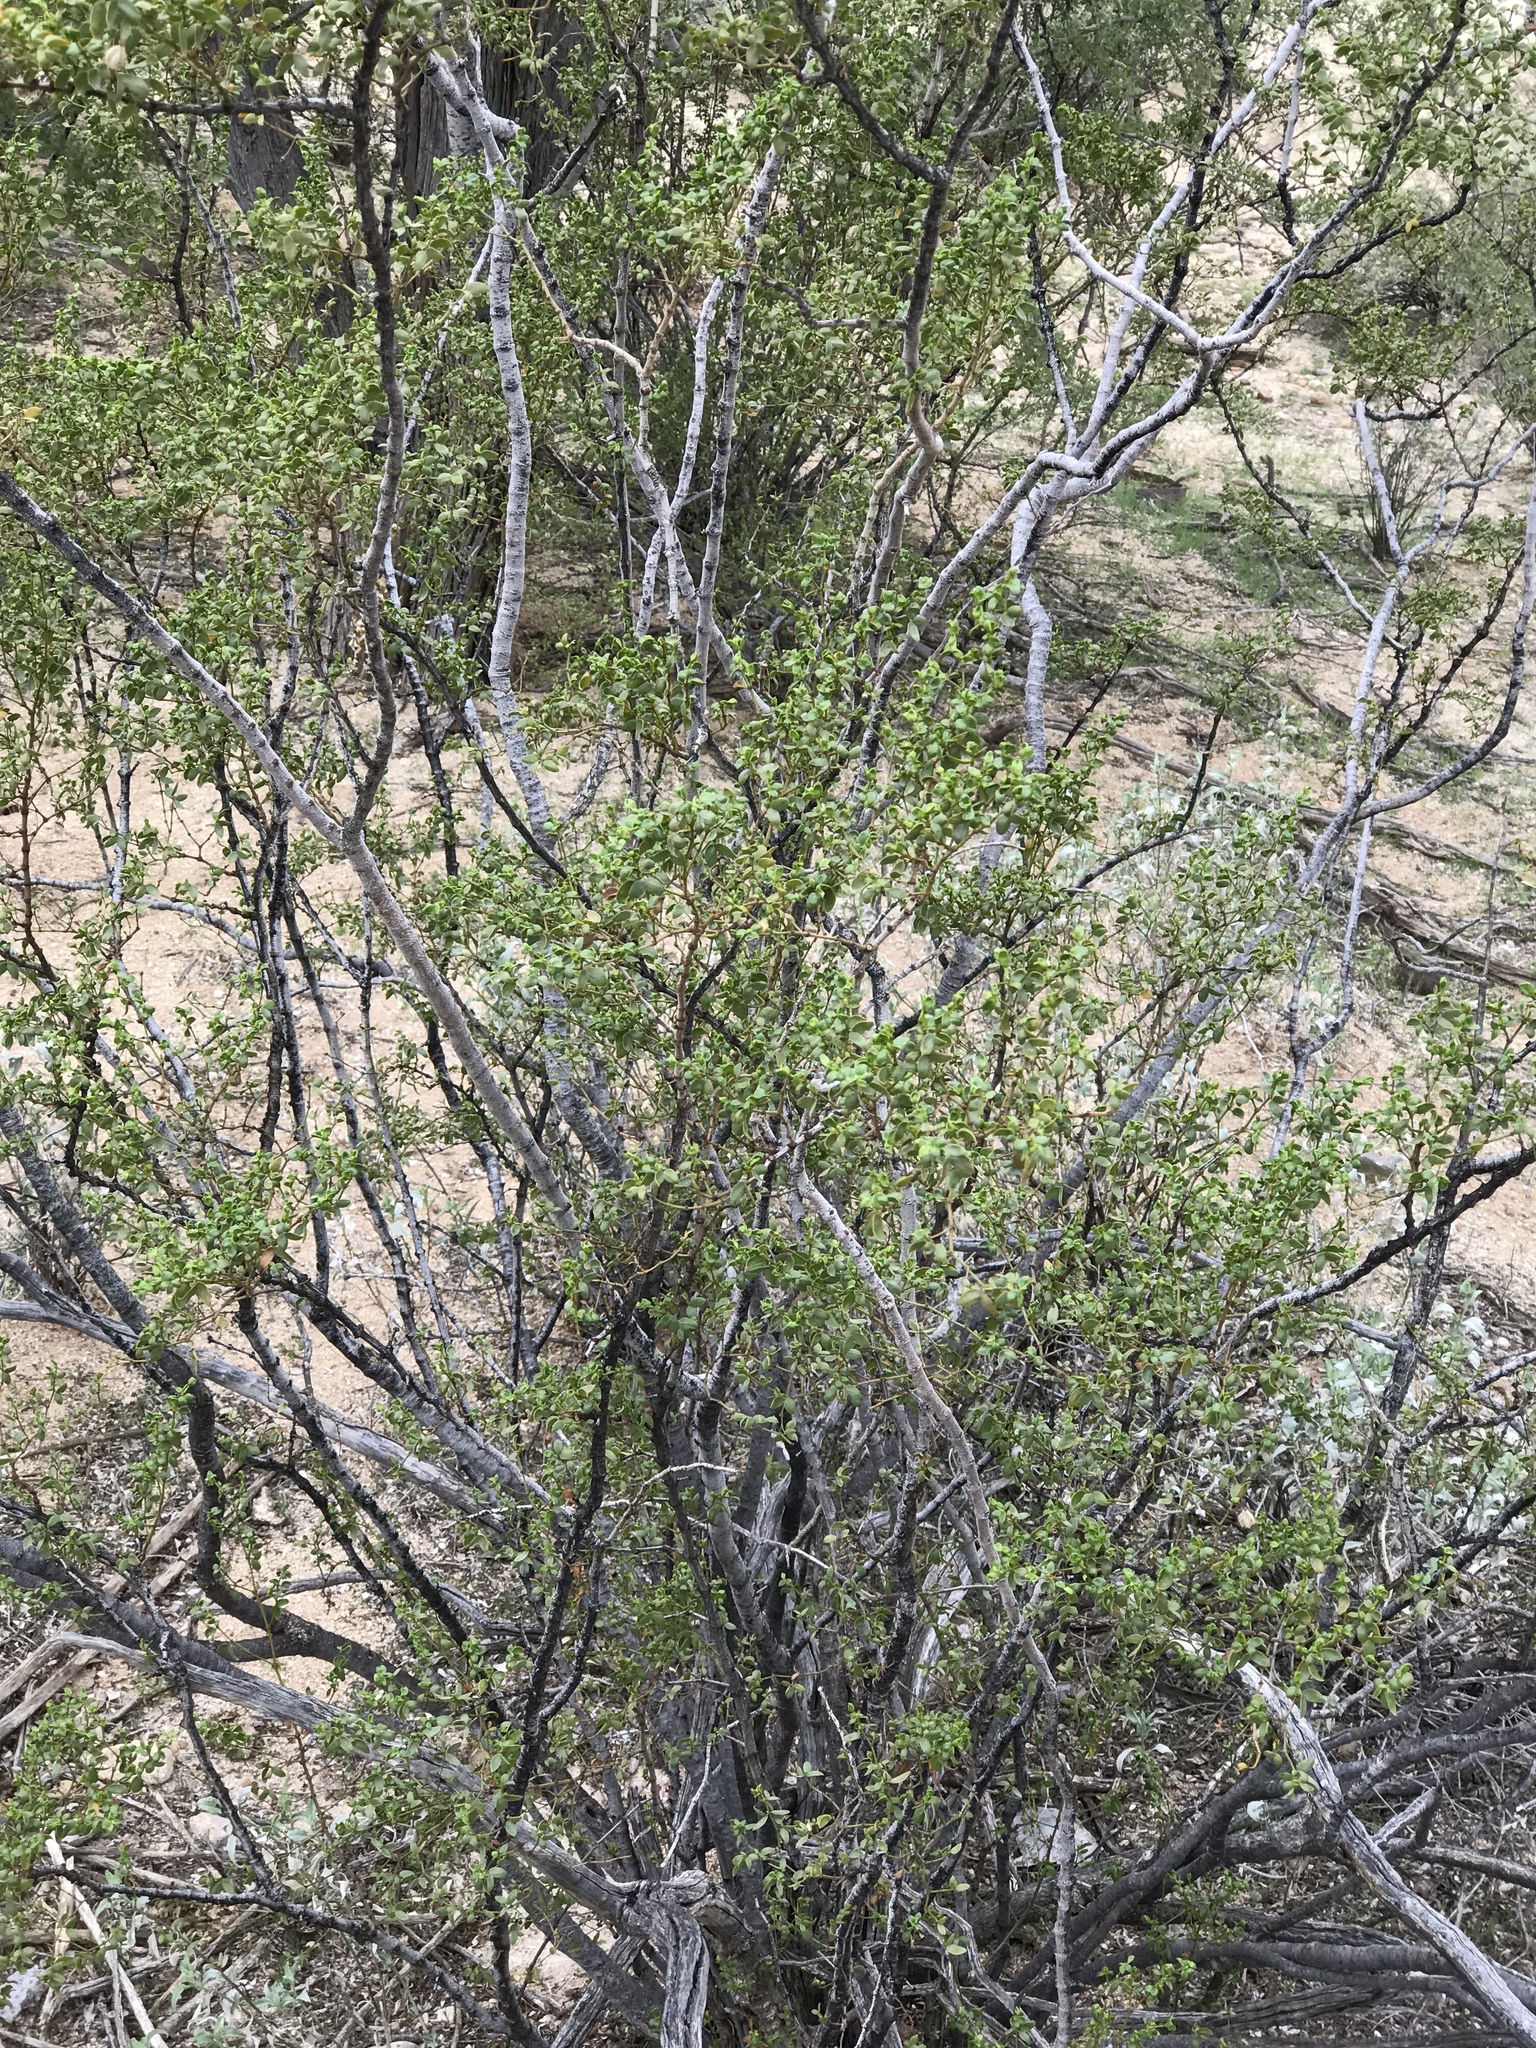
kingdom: Plantae
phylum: Tracheophyta
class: Magnoliopsida
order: Zygophyllales
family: Zygophyllaceae
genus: Larrea
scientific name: Larrea tridentata
